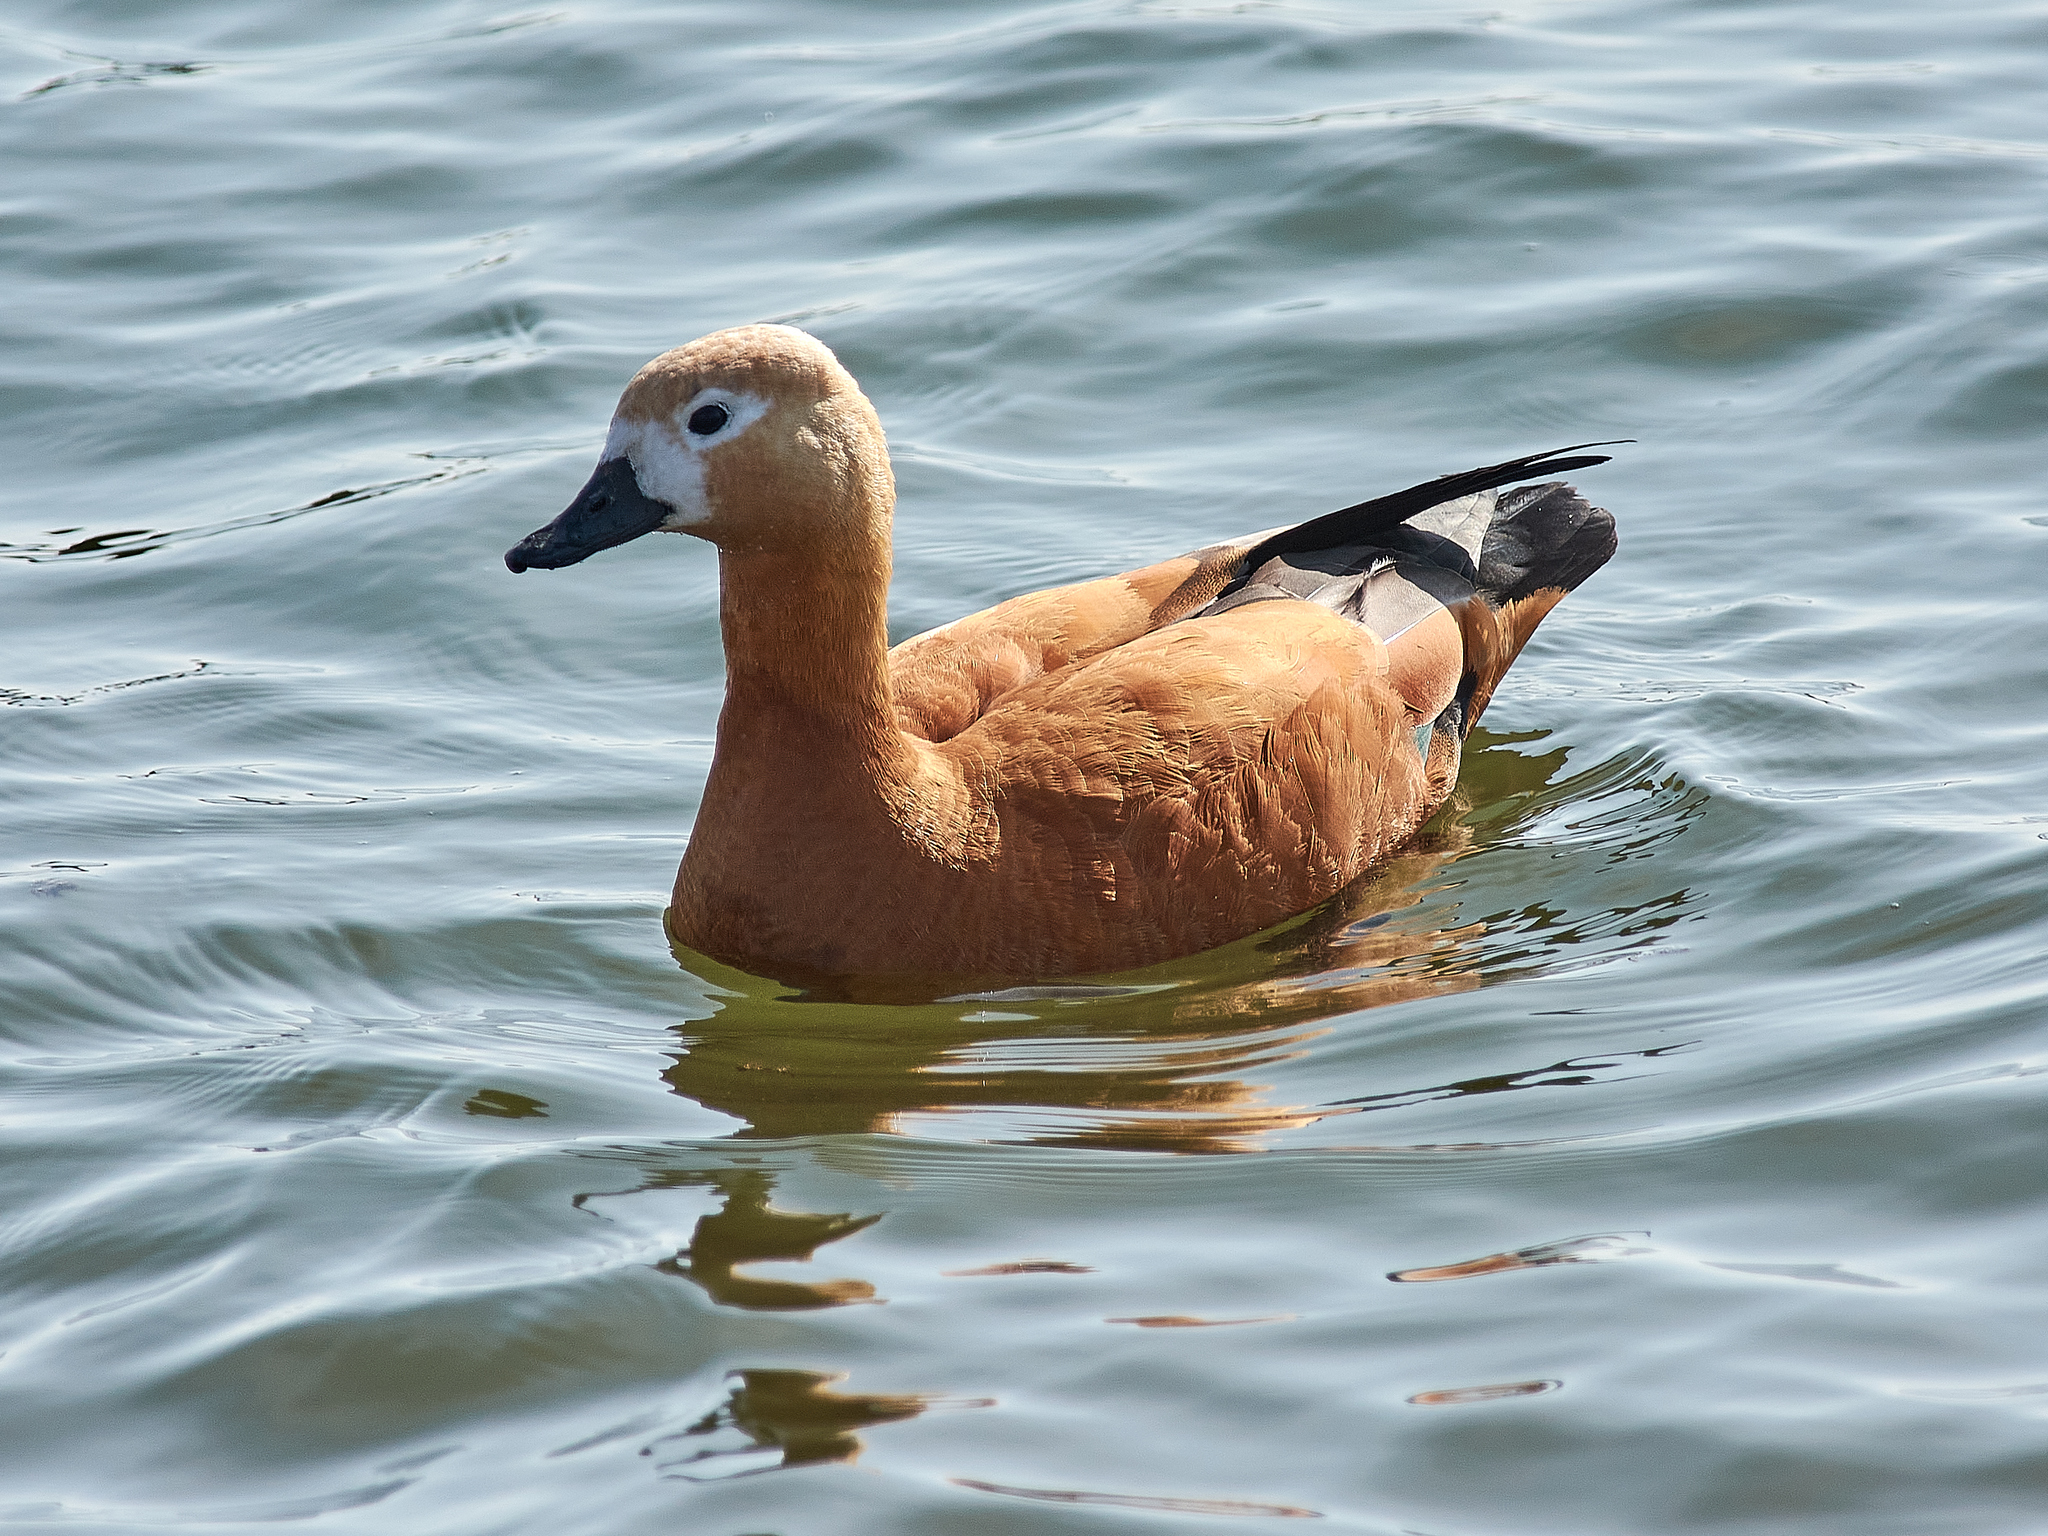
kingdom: Animalia
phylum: Chordata
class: Aves
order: Anseriformes
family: Anatidae
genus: Tadorna
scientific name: Tadorna ferruginea
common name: Ruddy shelduck
